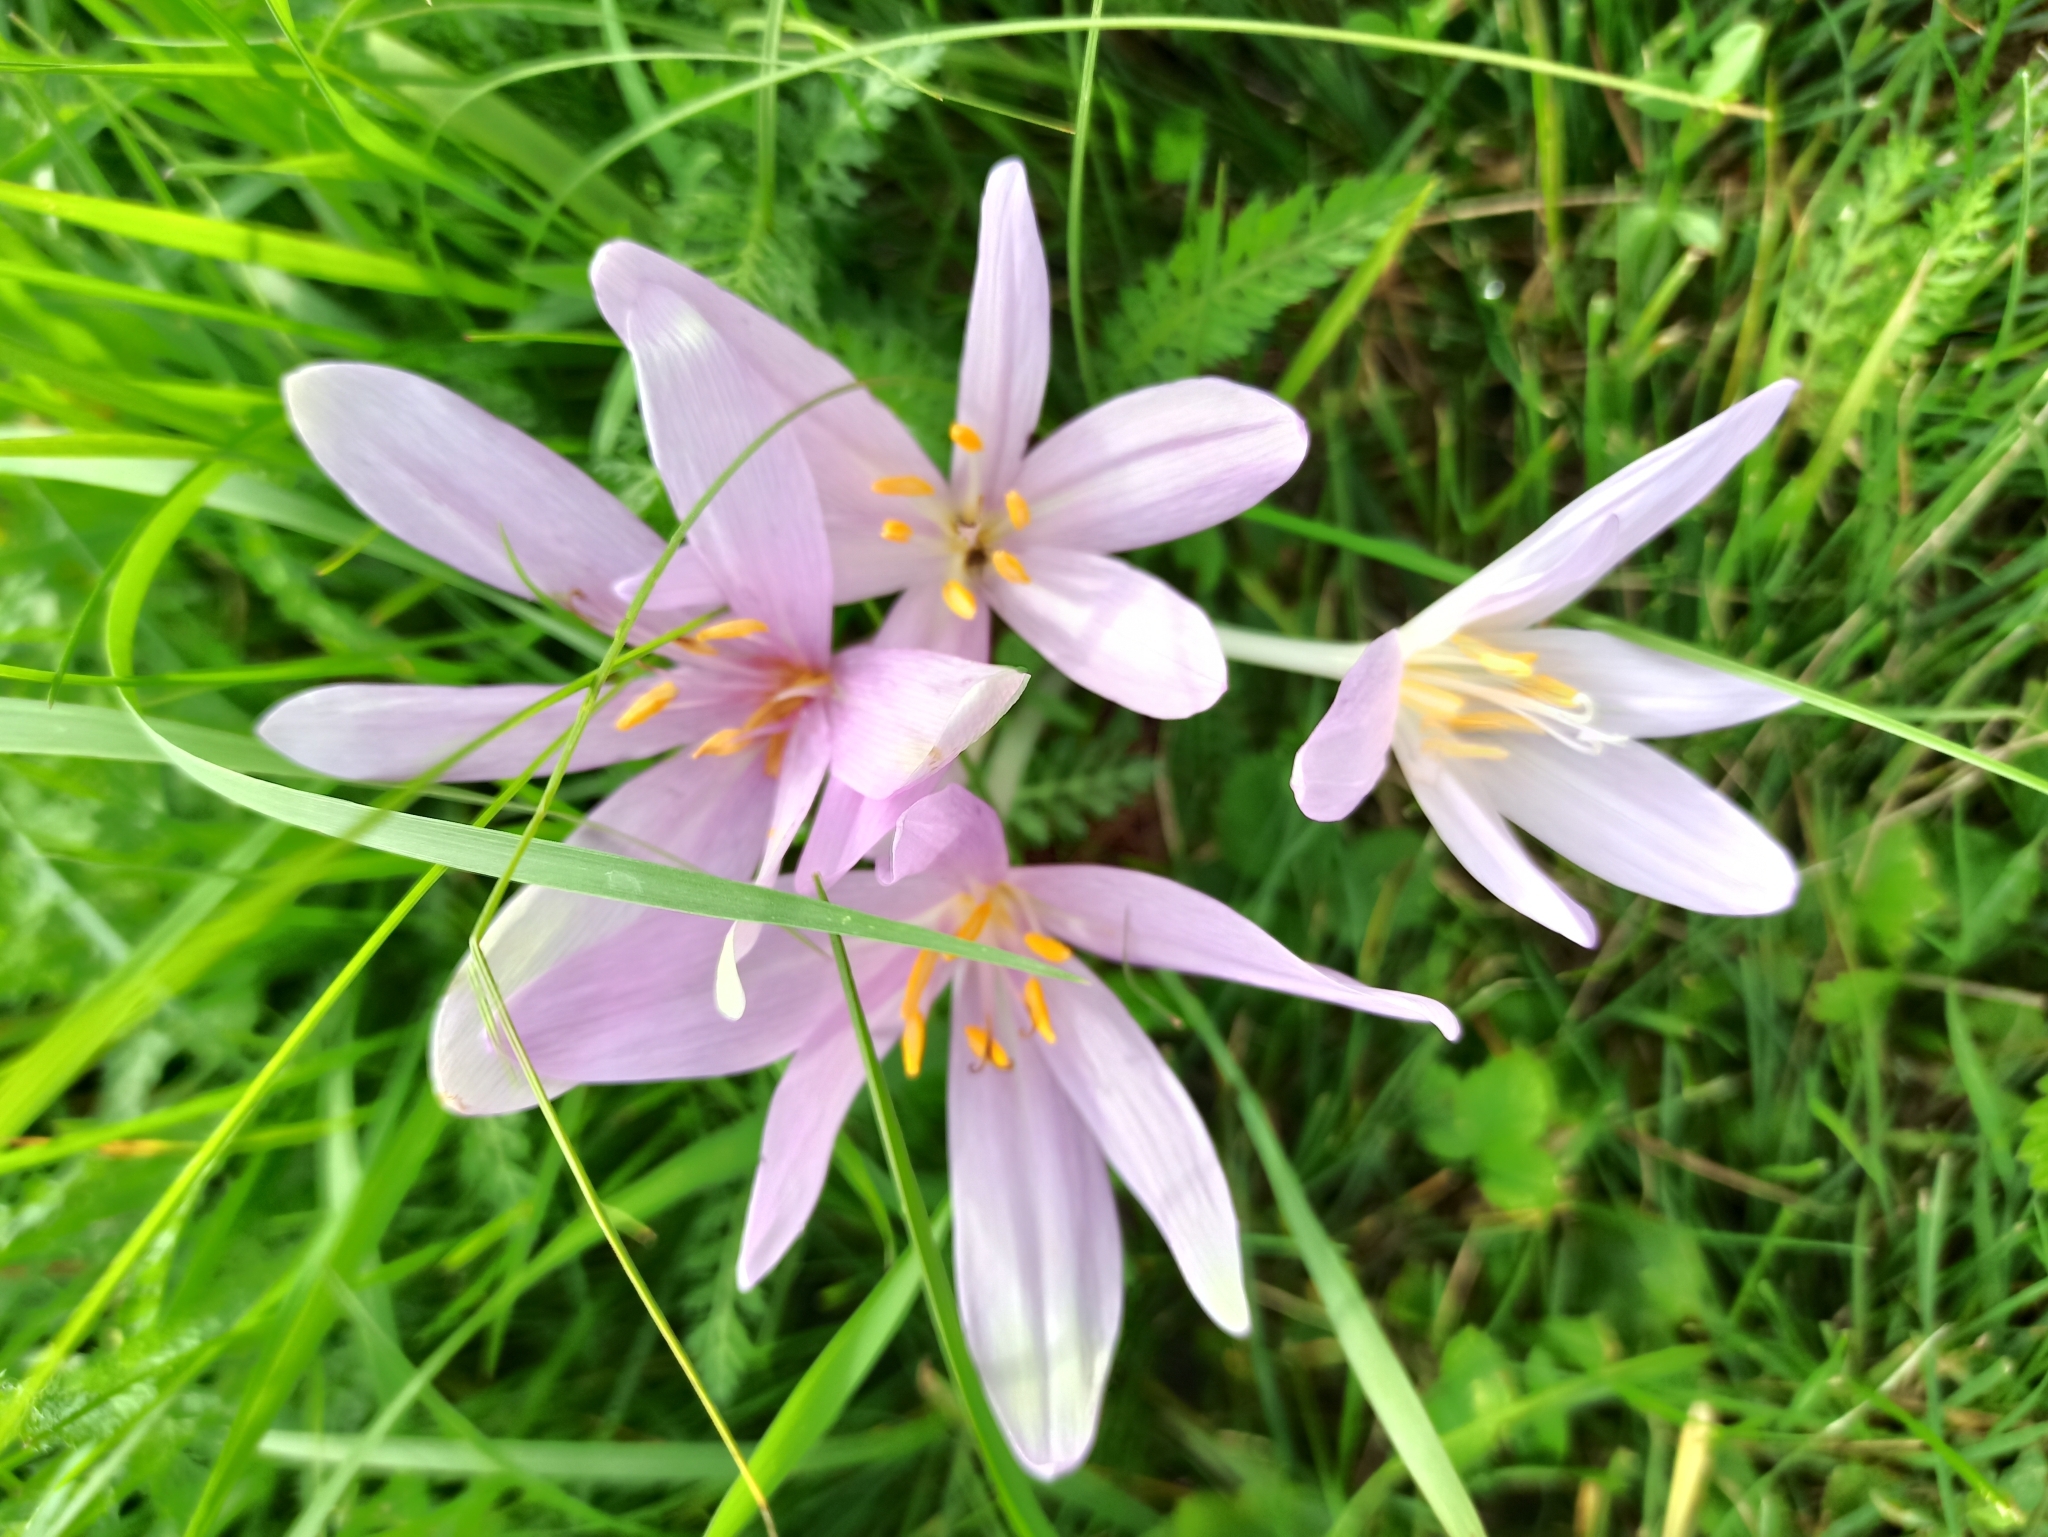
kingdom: Plantae
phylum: Tracheophyta
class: Liliopsida
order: Liliales
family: Colchicaceae
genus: Colchicum
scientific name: Colchicum autumnale
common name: Autumn crocus
